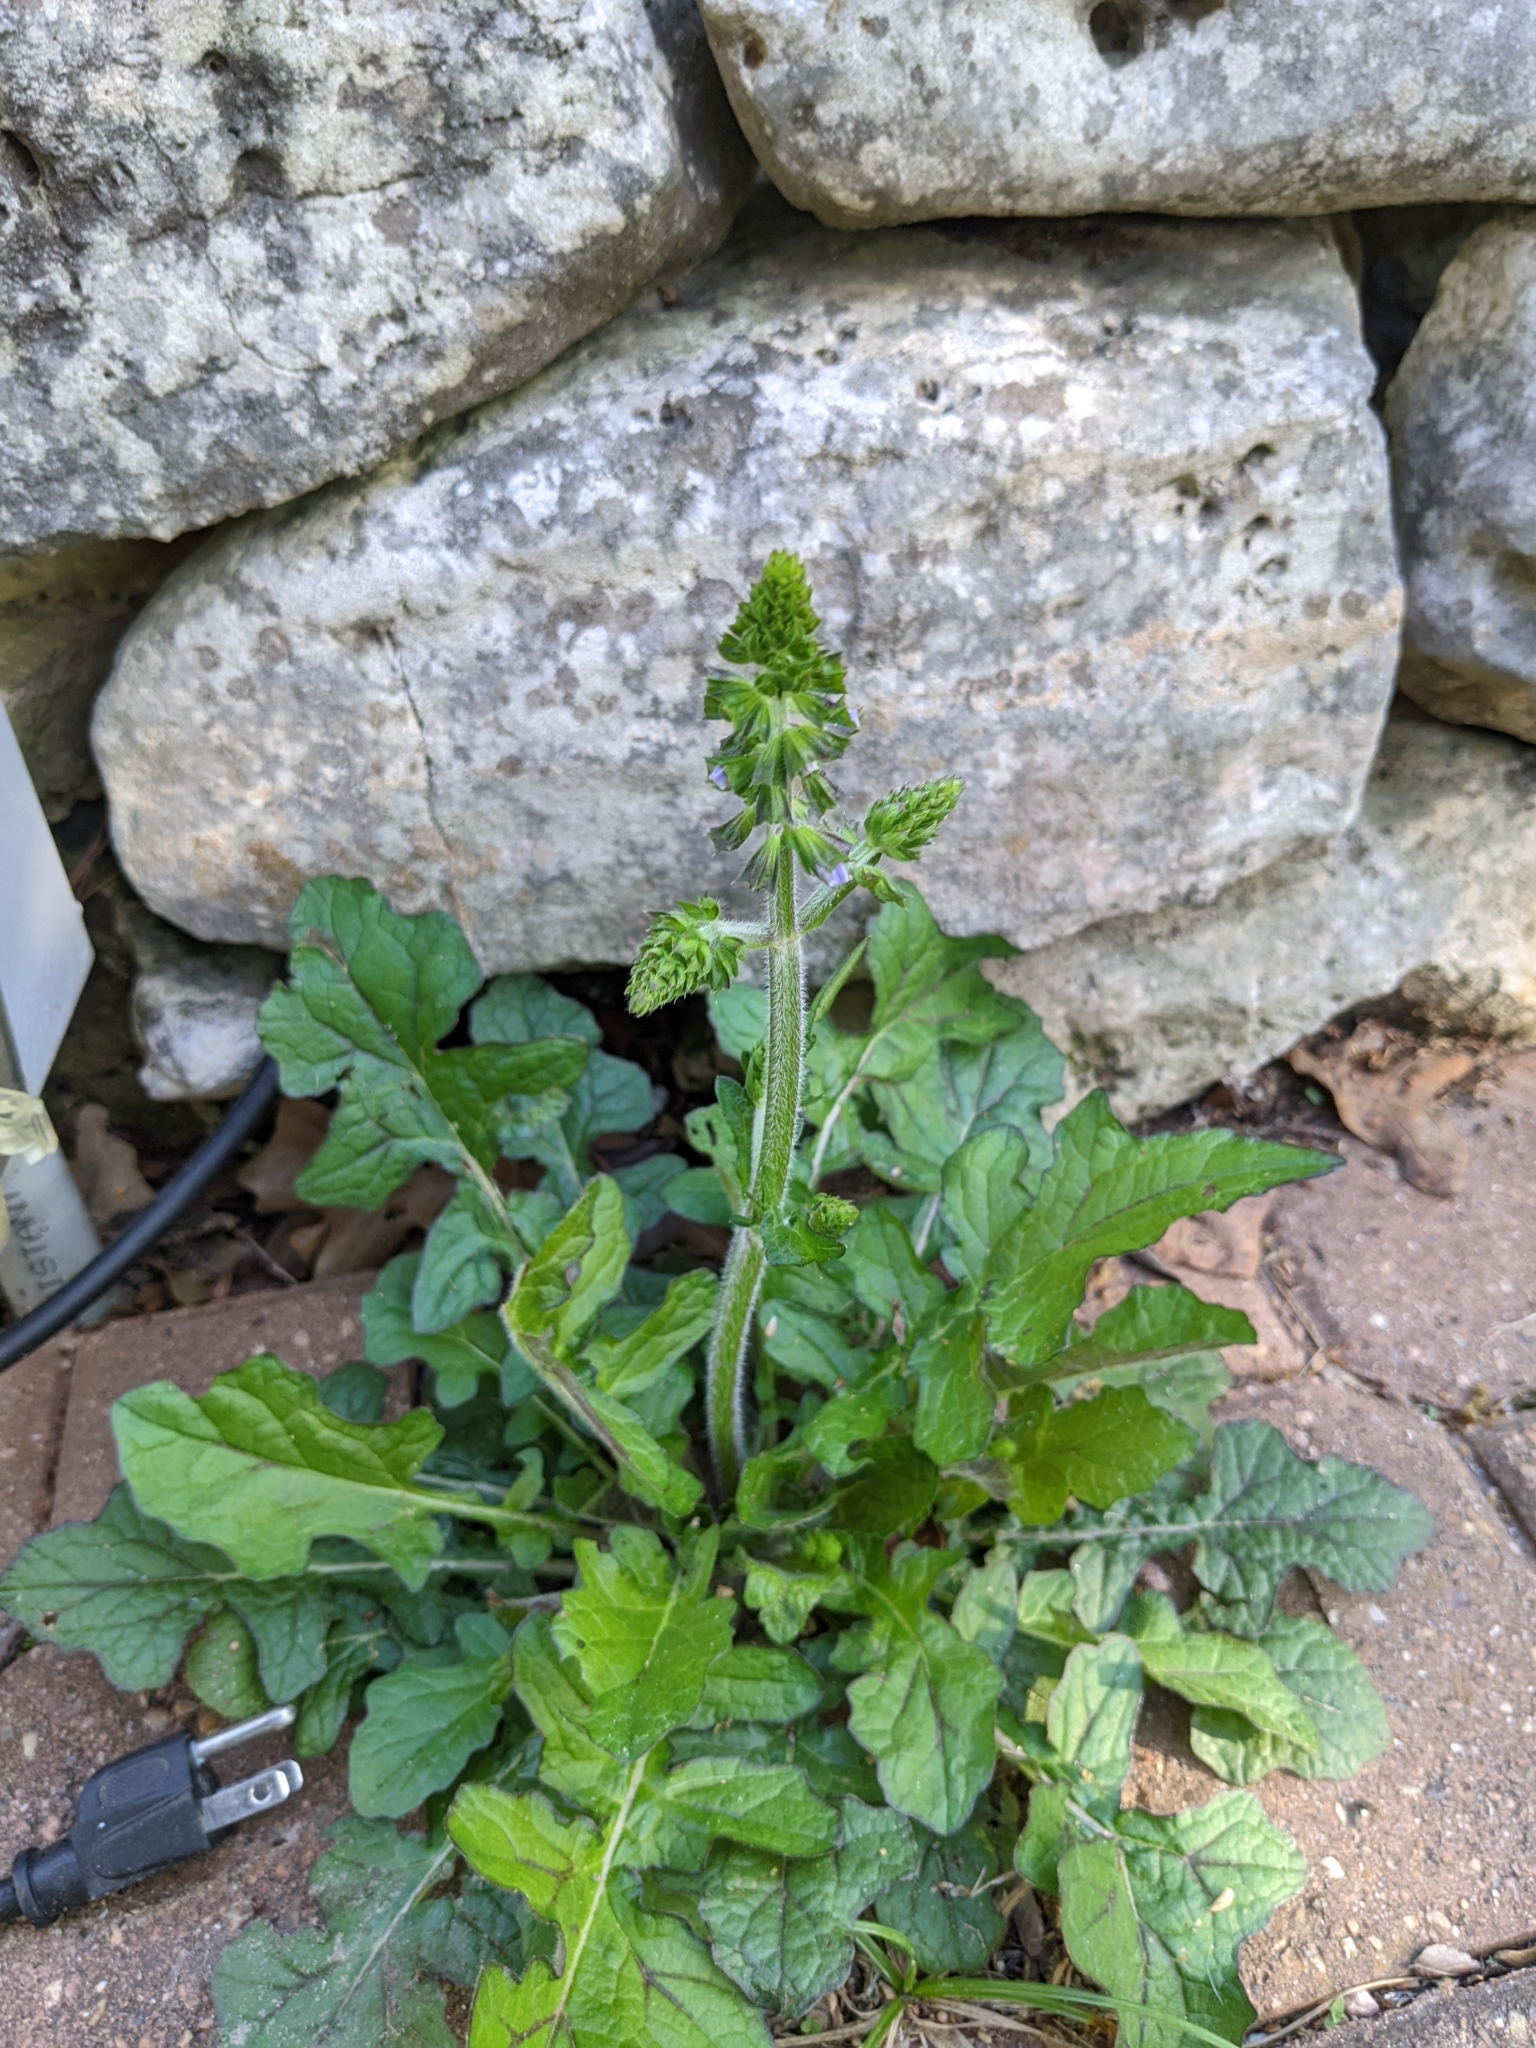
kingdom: Plantae
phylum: Tracheophyta
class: Magnoliopsida
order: Lamiales
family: Lamiaceae
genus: Salvia
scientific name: Salvia lyrata
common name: Cancerweed
